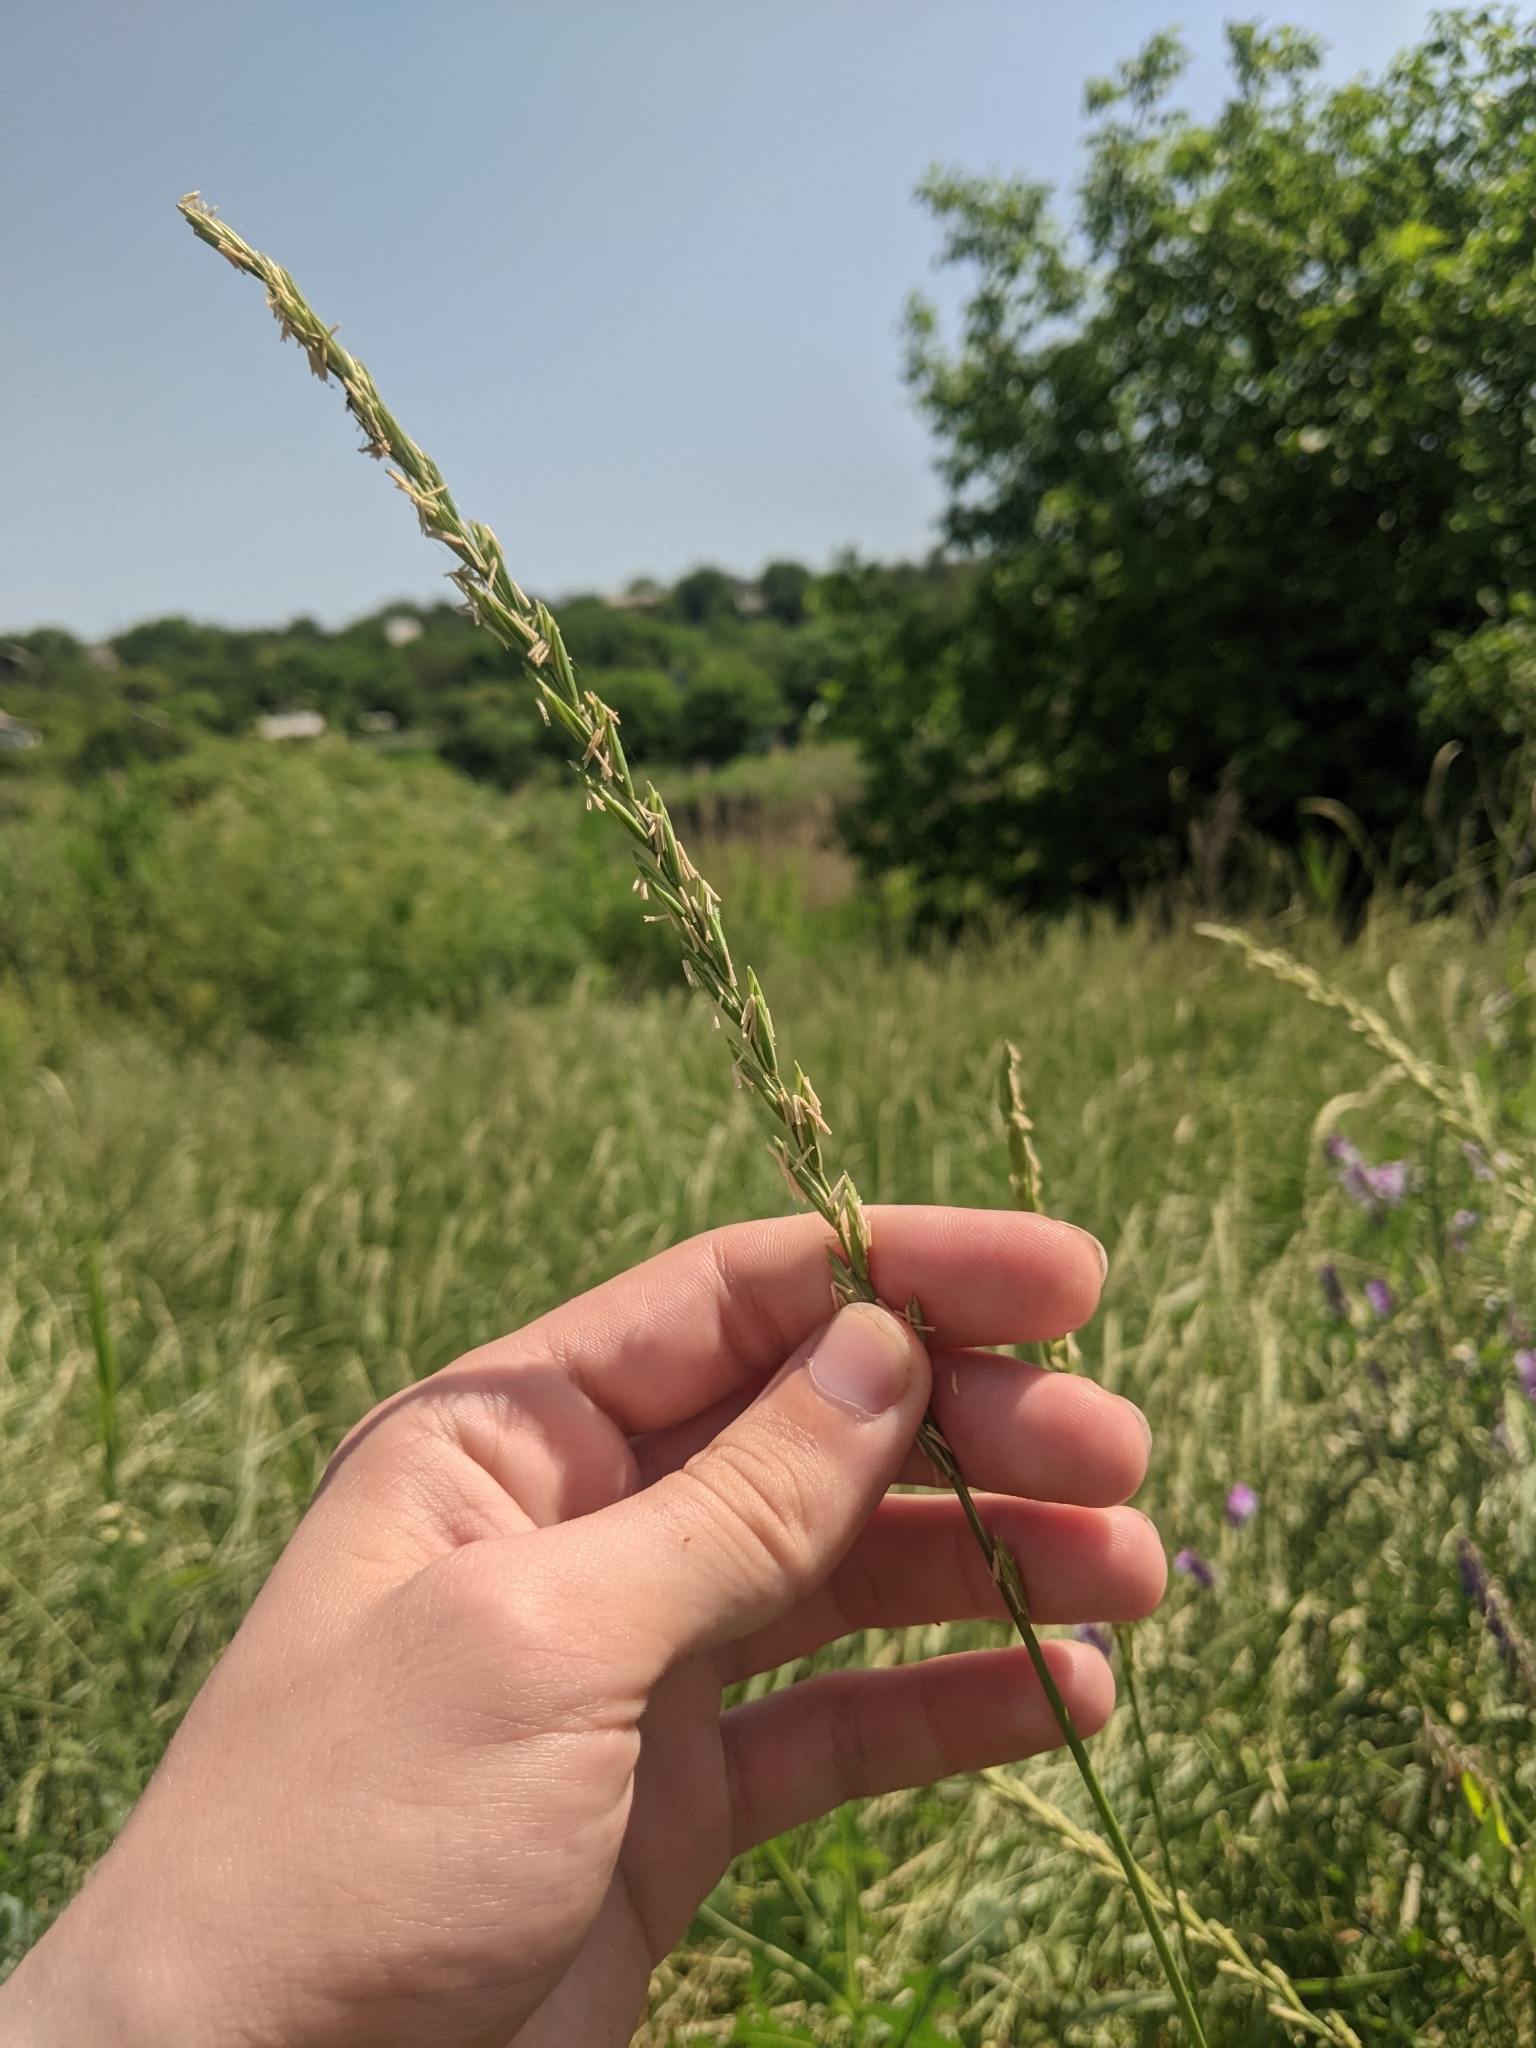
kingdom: Plantae
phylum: Tracheophyta
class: Liliopsida
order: Poales
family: Poaceae
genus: Elymus
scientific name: Elymus repens
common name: Quackgrass
